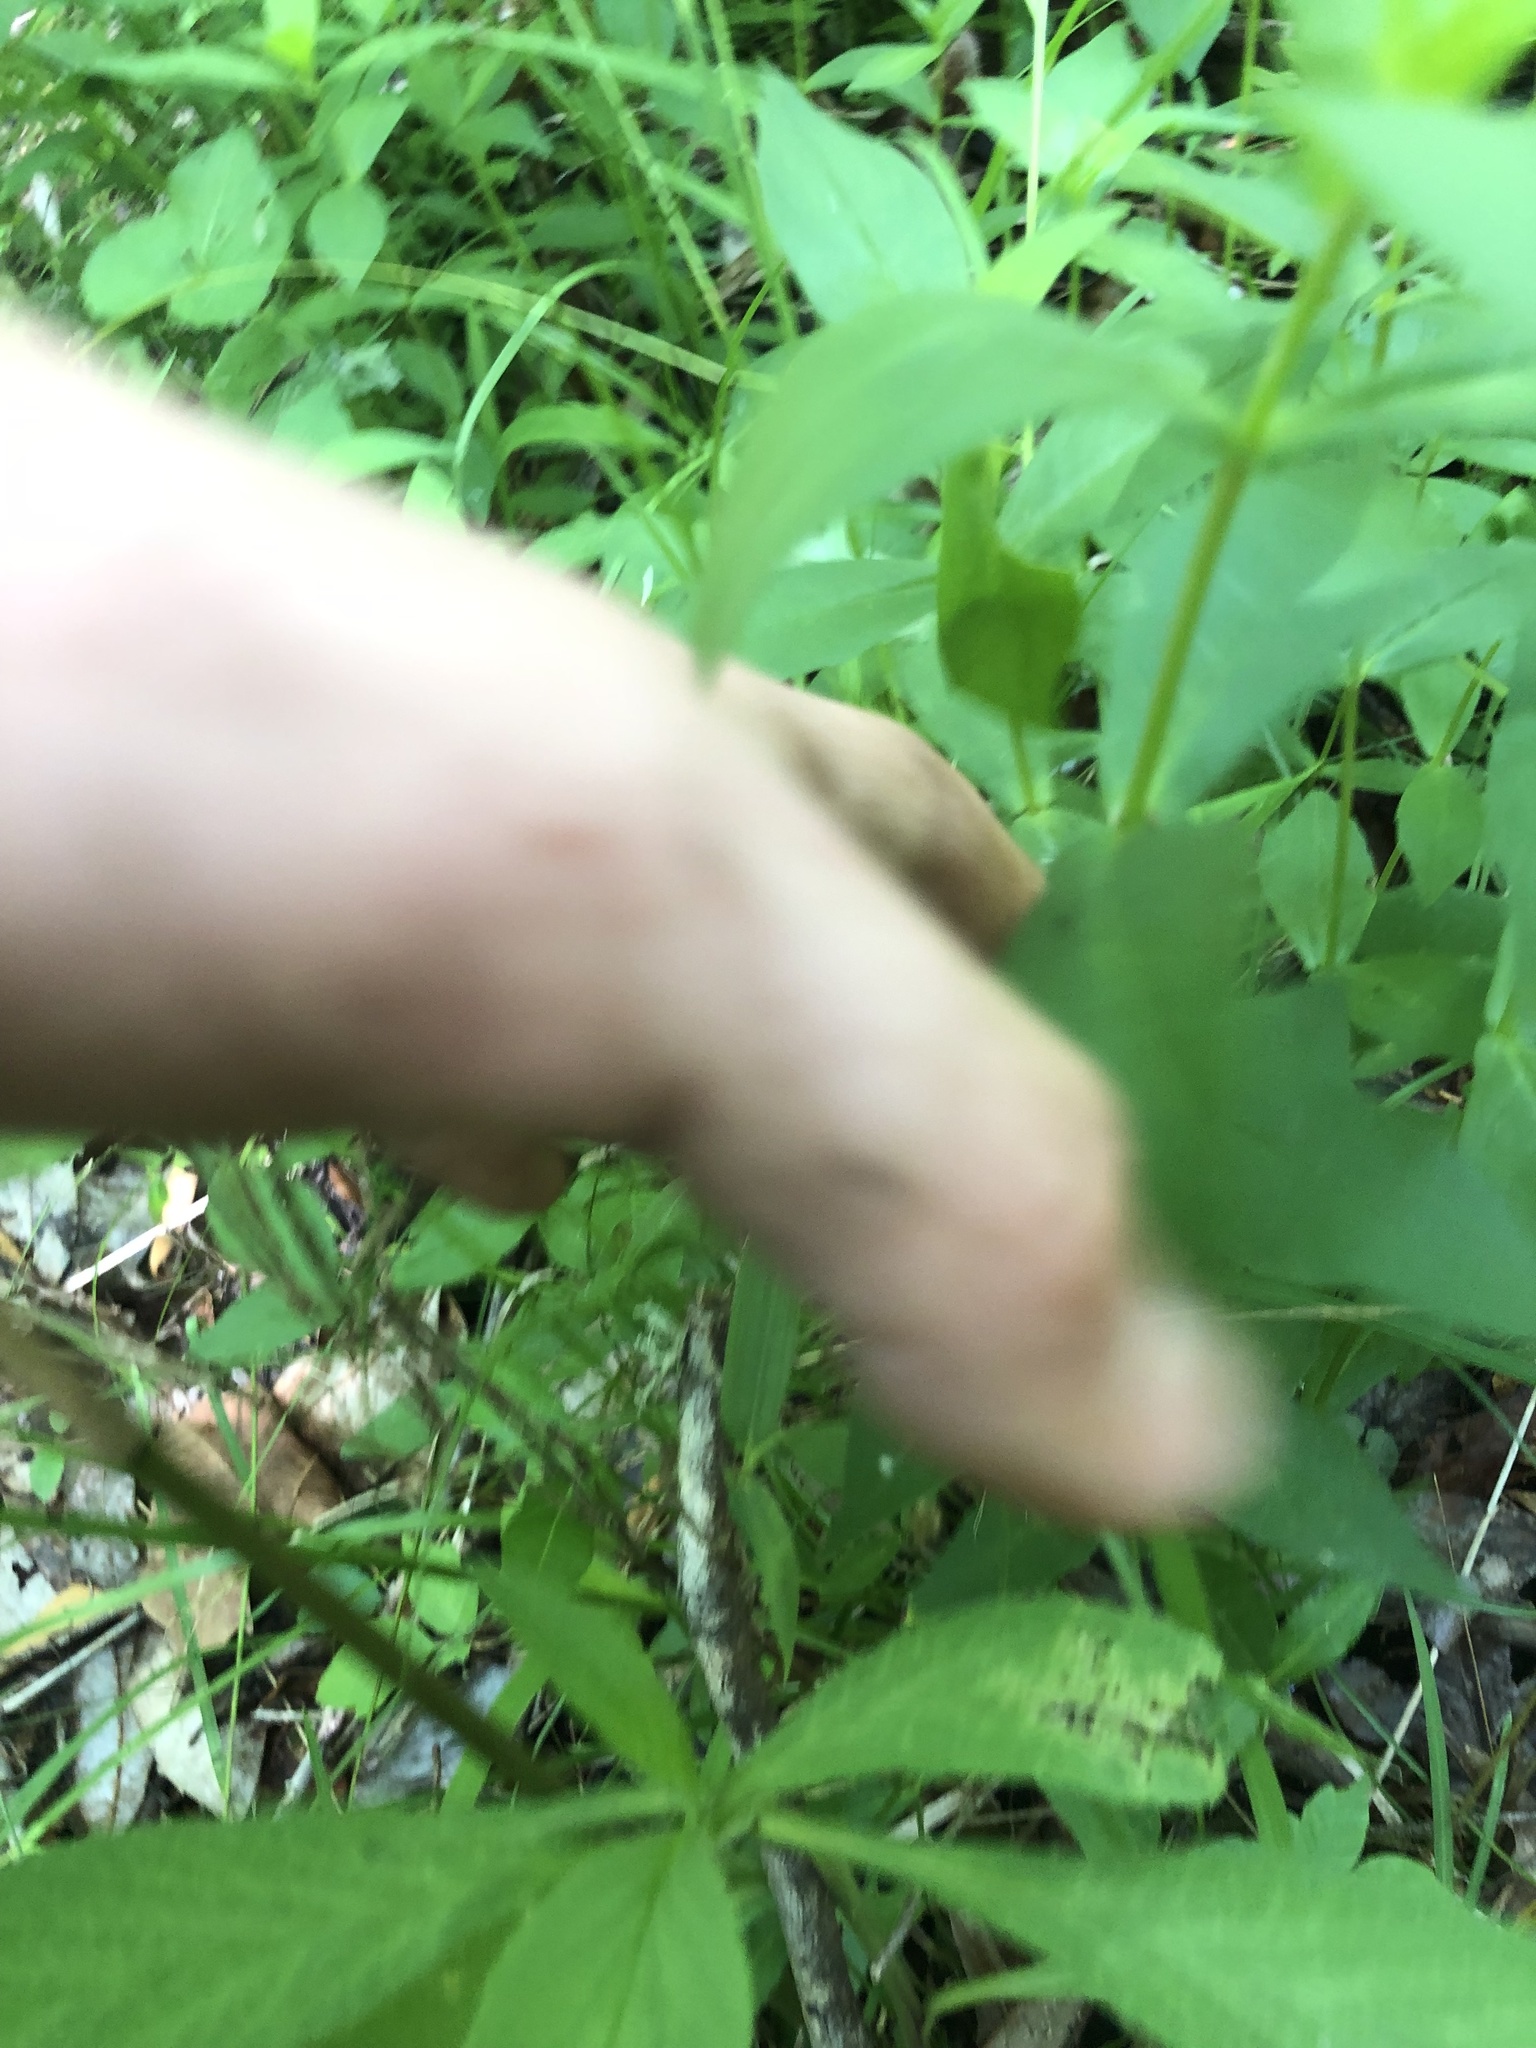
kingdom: Plantae
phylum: Tracheophyta
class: Magnoliopsida
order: Asterales
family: Asteraceae
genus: Jamesianthus
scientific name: Jamesianthus alabamensis
